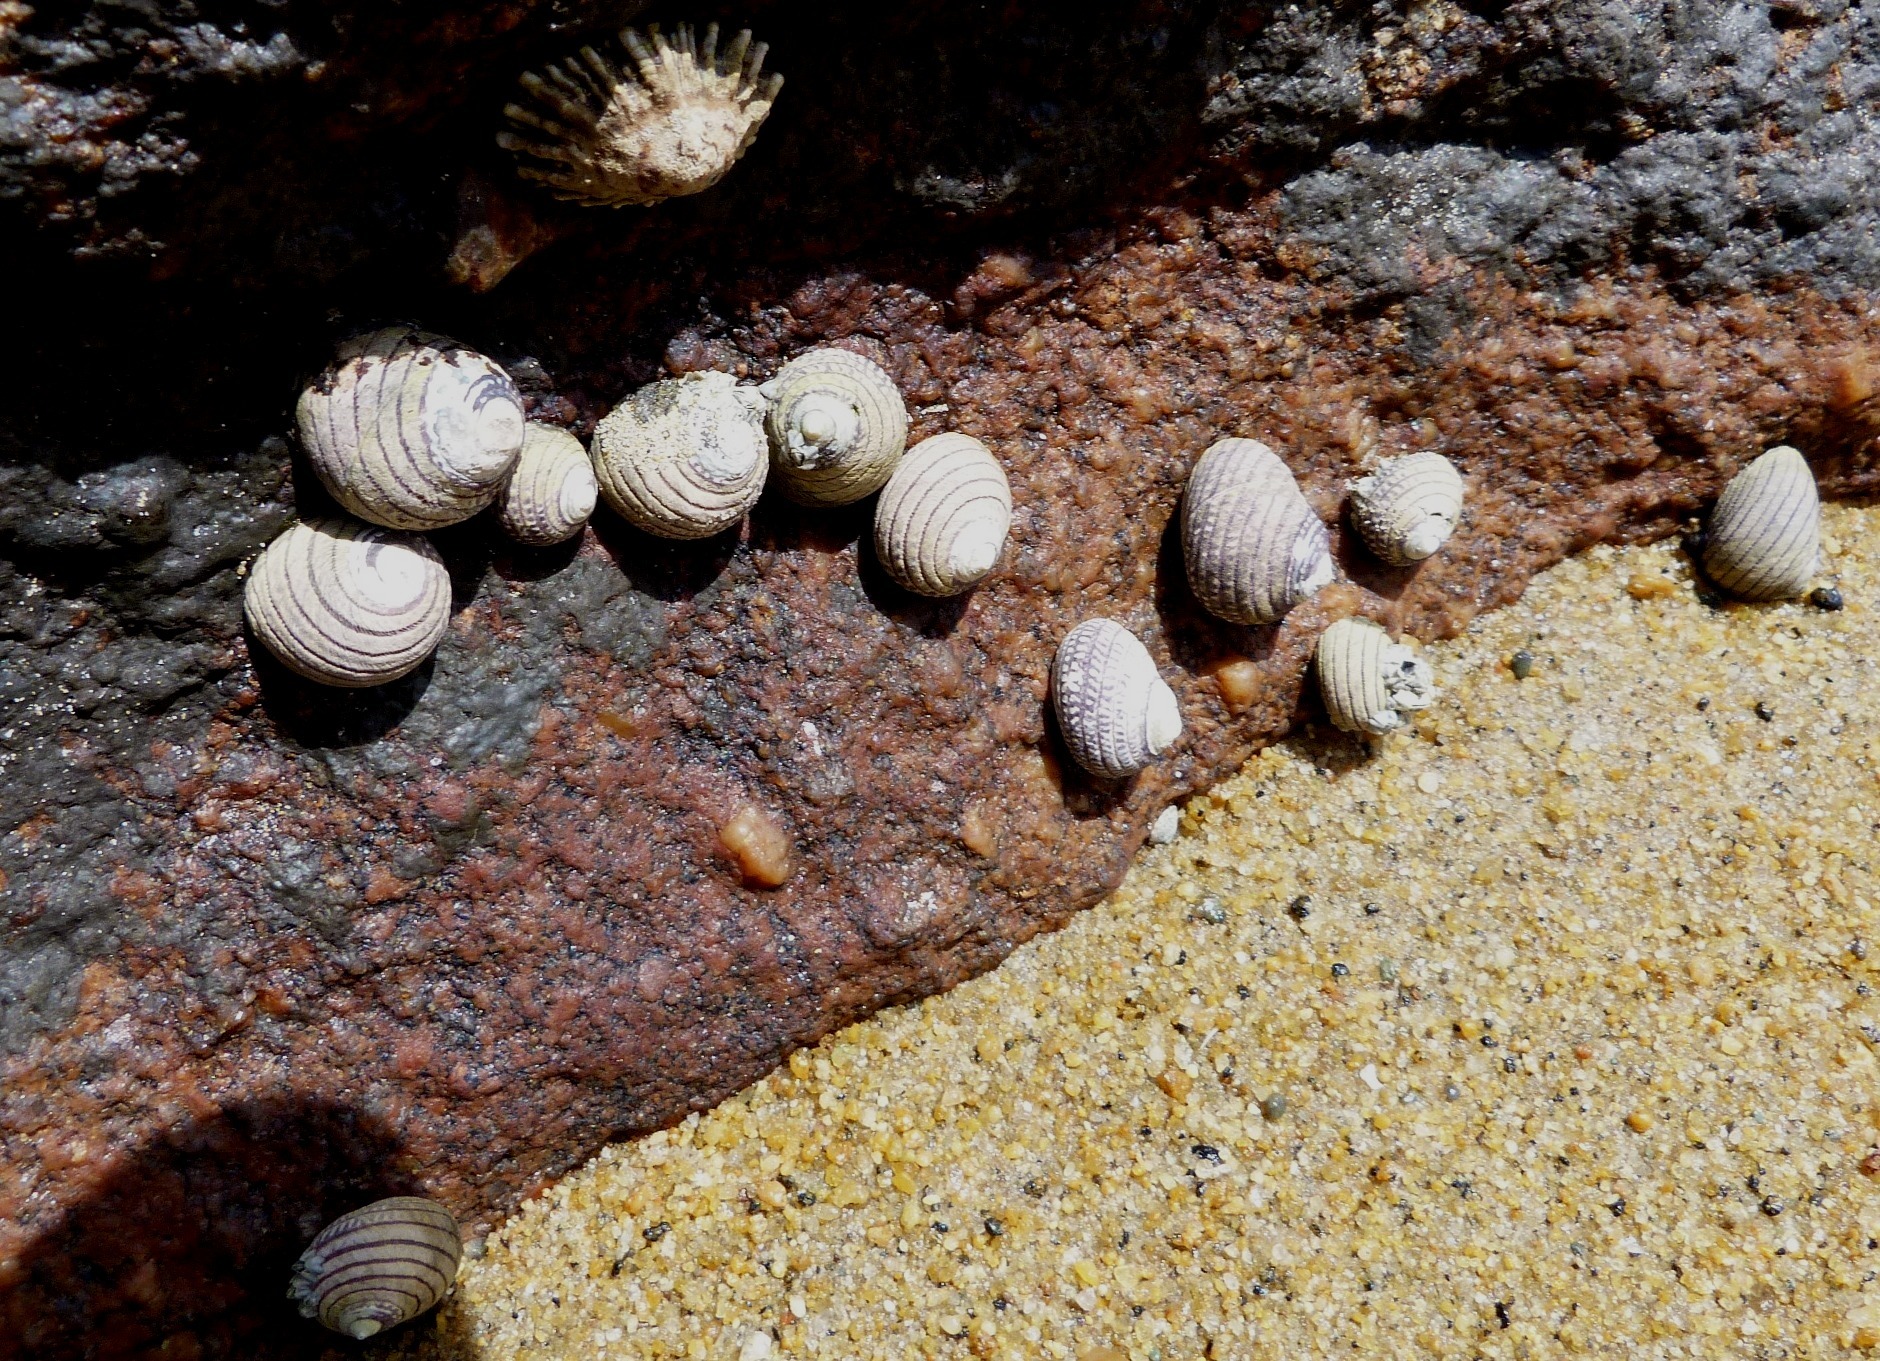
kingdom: Animalia
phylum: Mollusca
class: Gastropoda
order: Trochida
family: Trochidae
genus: Diloma
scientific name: Diloma aethiops
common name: Scorched monodont
